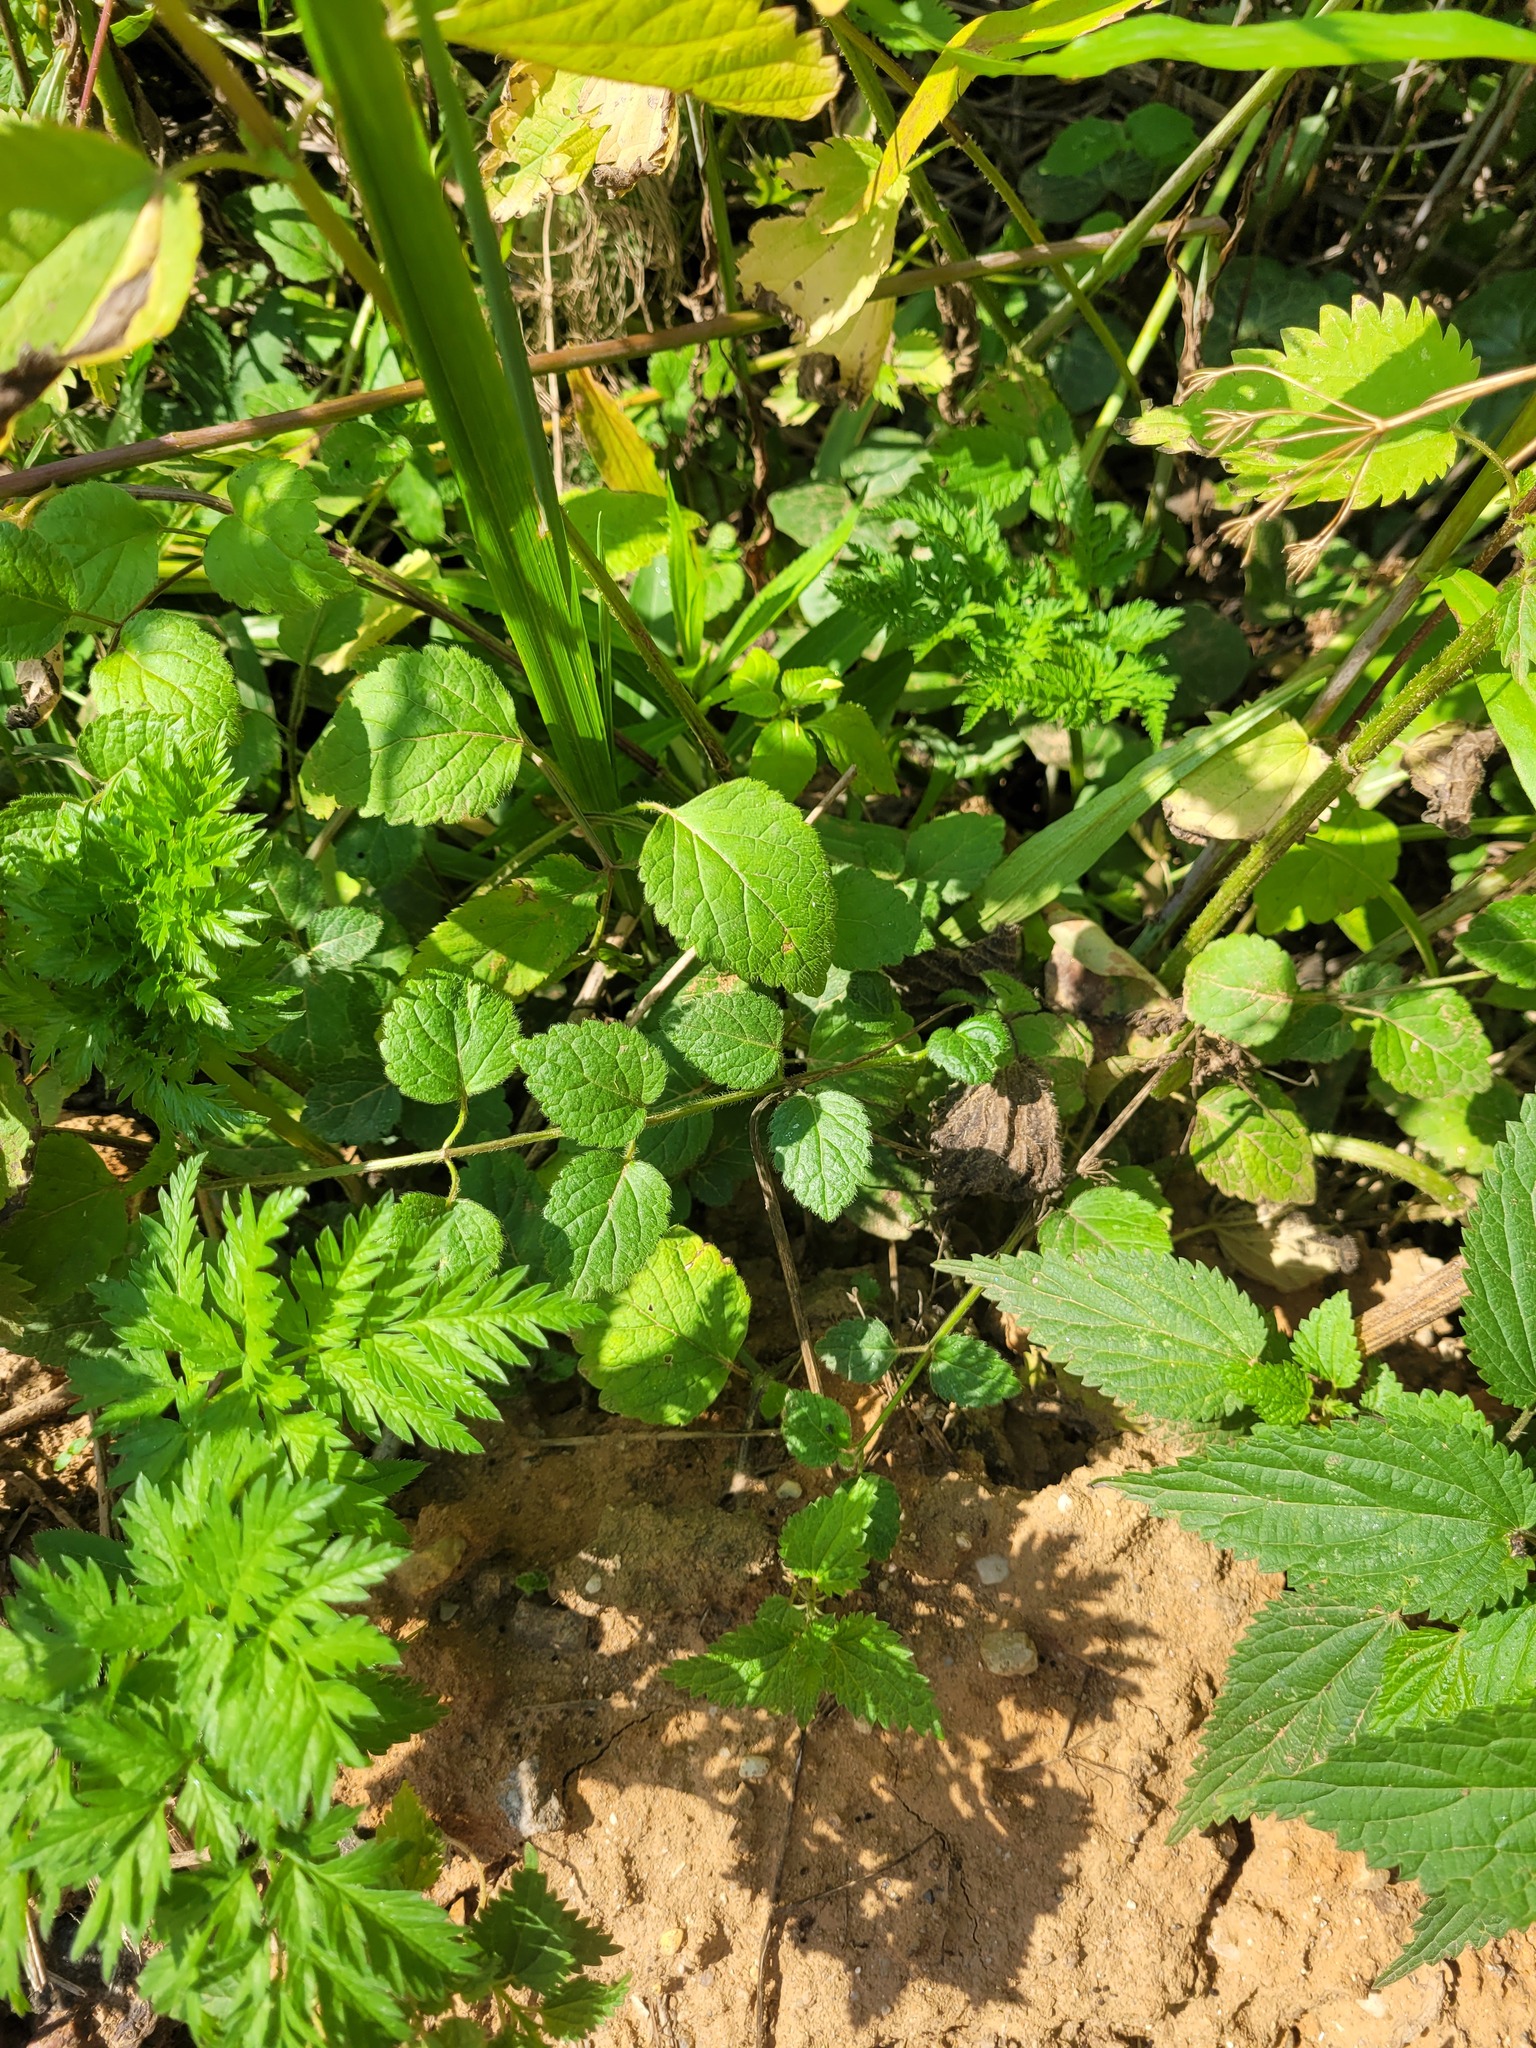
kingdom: Plantae
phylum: Tracheophyta
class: Magnoliopsida
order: Lamiales
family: Lamiaceae
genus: Lamium
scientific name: Lamium galeobdolon
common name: Yellow archangel
